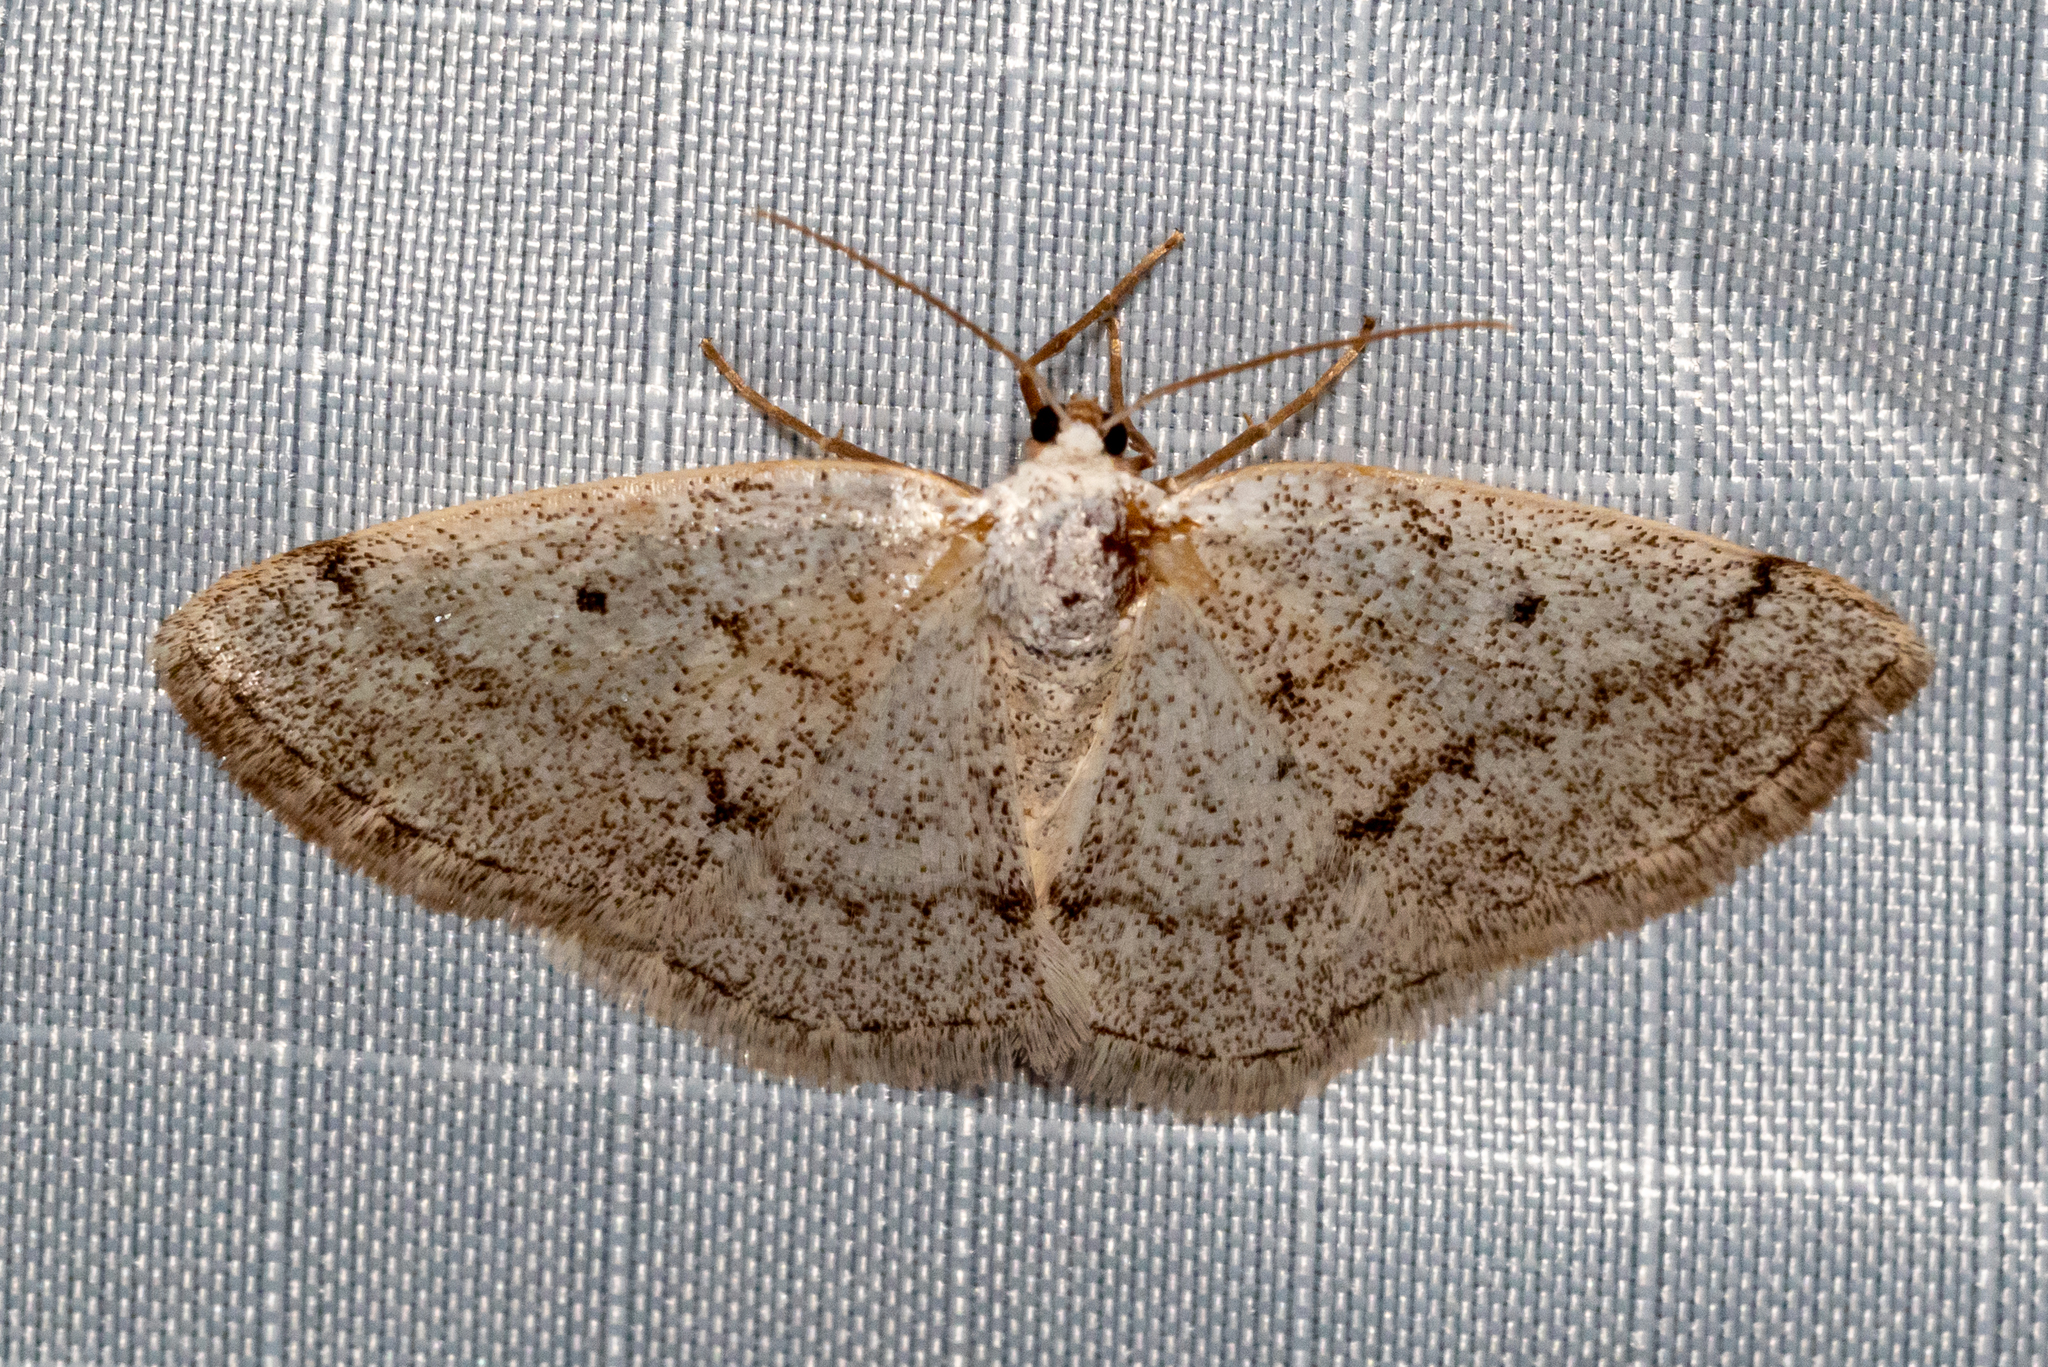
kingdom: Animalia
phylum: Arthropoda
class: Insecta
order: Lepidoptera
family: Geometridae
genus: Lomographa
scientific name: Lomographa glomeraria
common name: Gray spring moth
